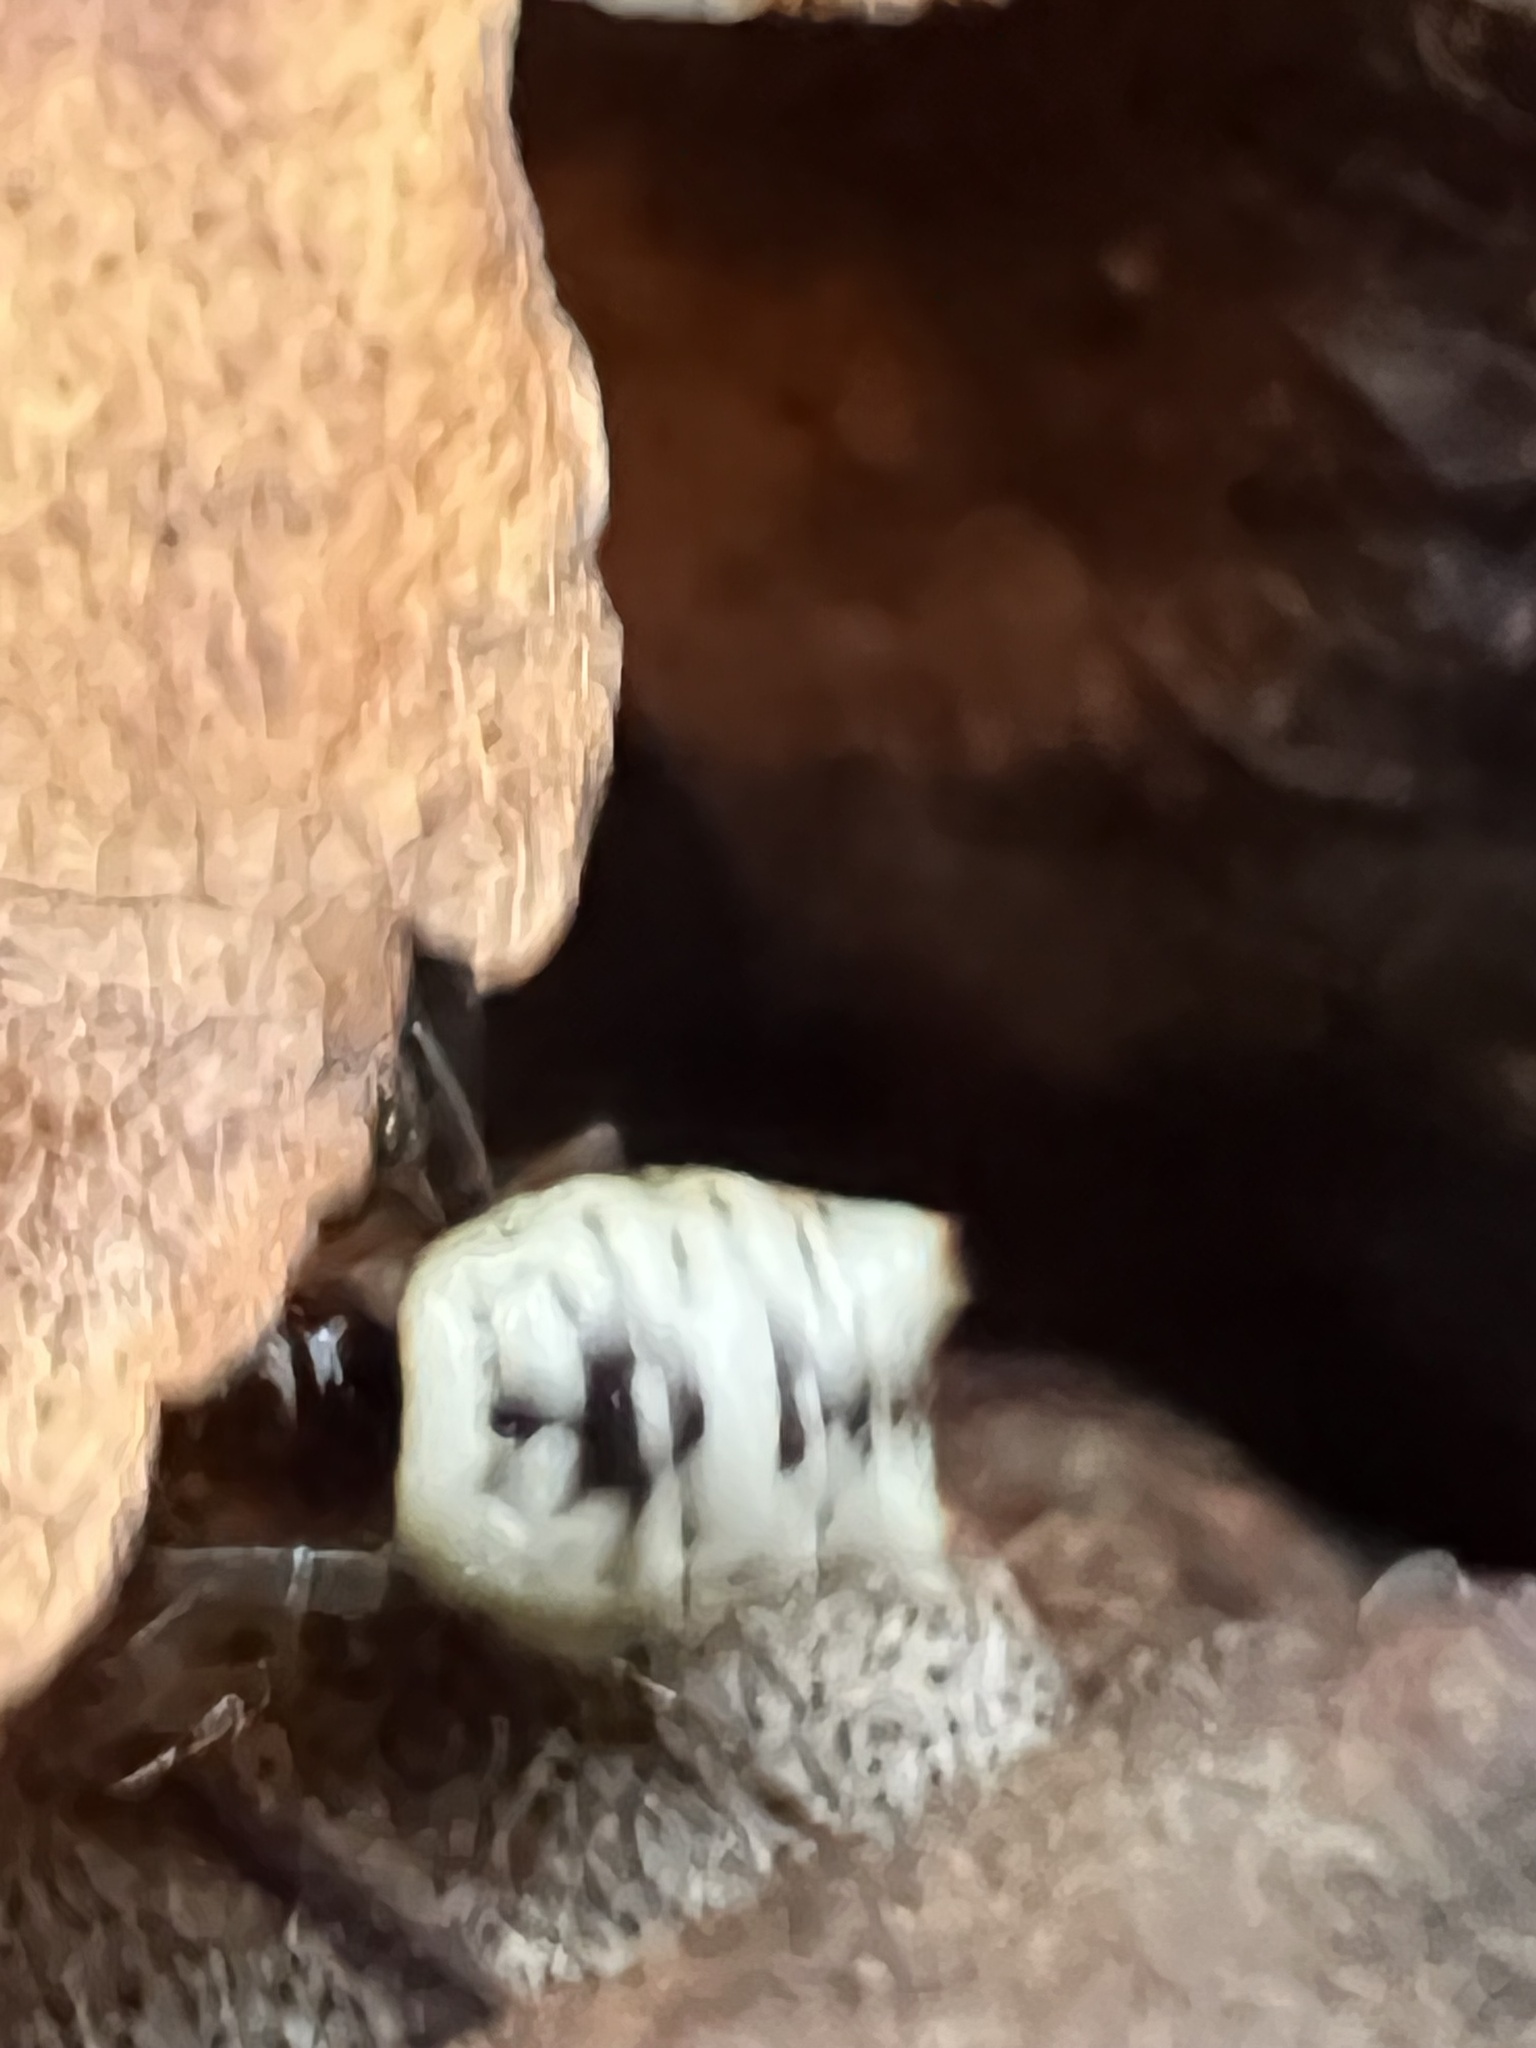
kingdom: Animalia
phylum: Arthropoda
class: Arachnida
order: Araneae
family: Araneidae
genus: Micrathena
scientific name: Micrathena mitrata
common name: Orb weavers
